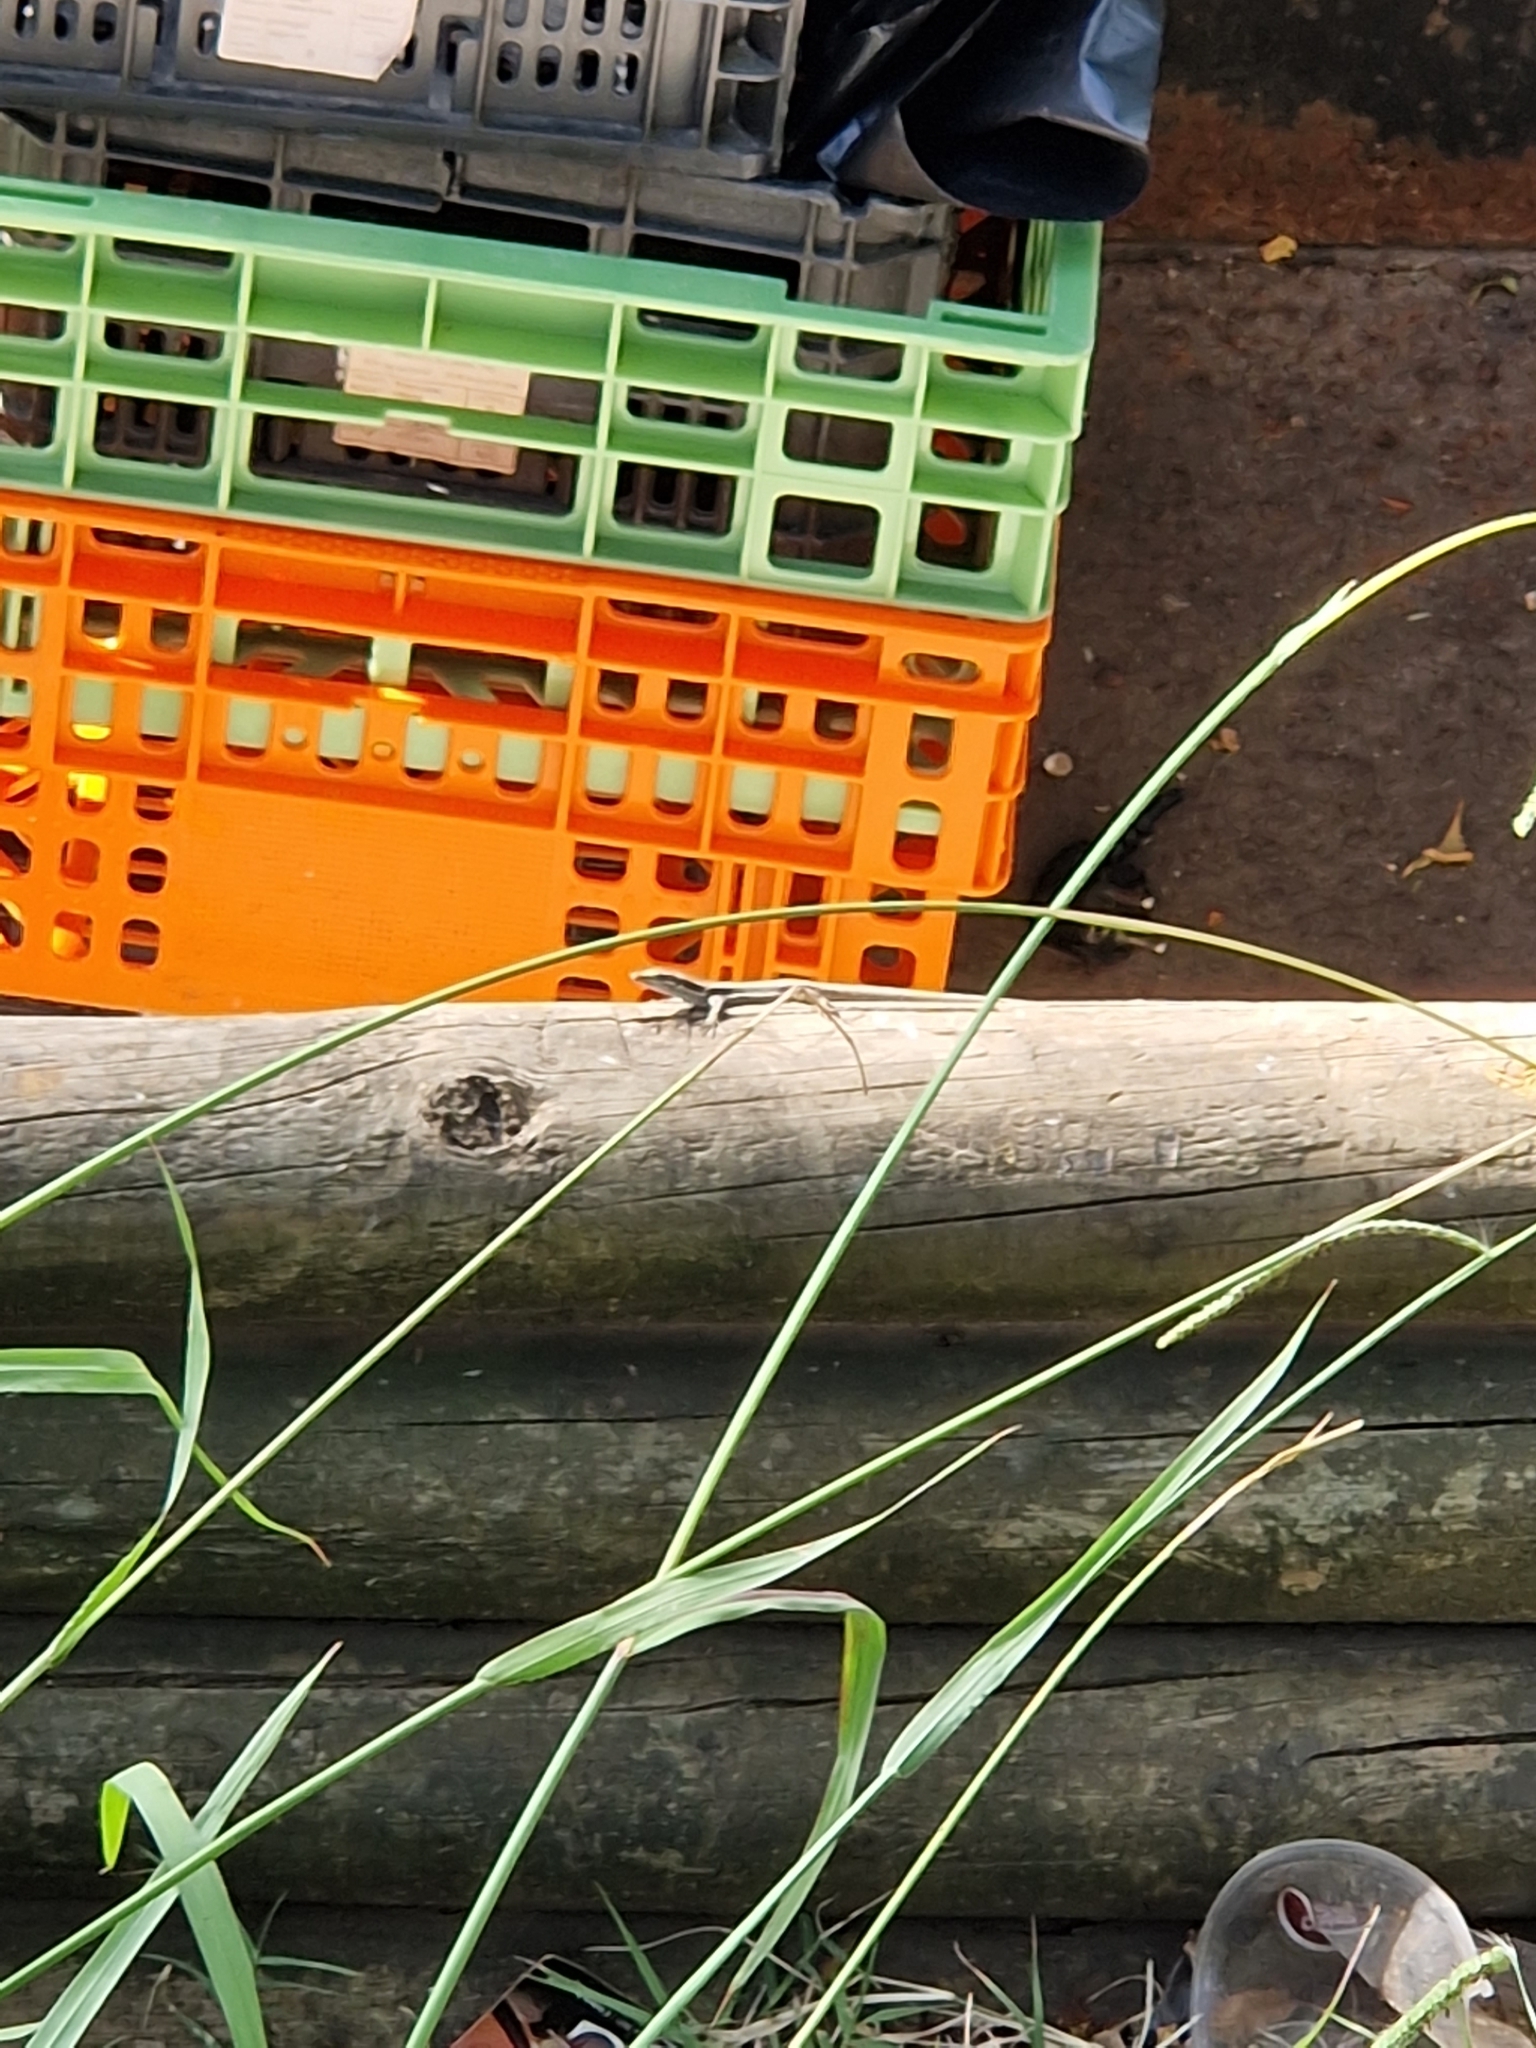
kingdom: Animalia
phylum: Chordata
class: Squamata
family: Lacertidae
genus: Teira
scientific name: Teira dugesii
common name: Madeira lizard
